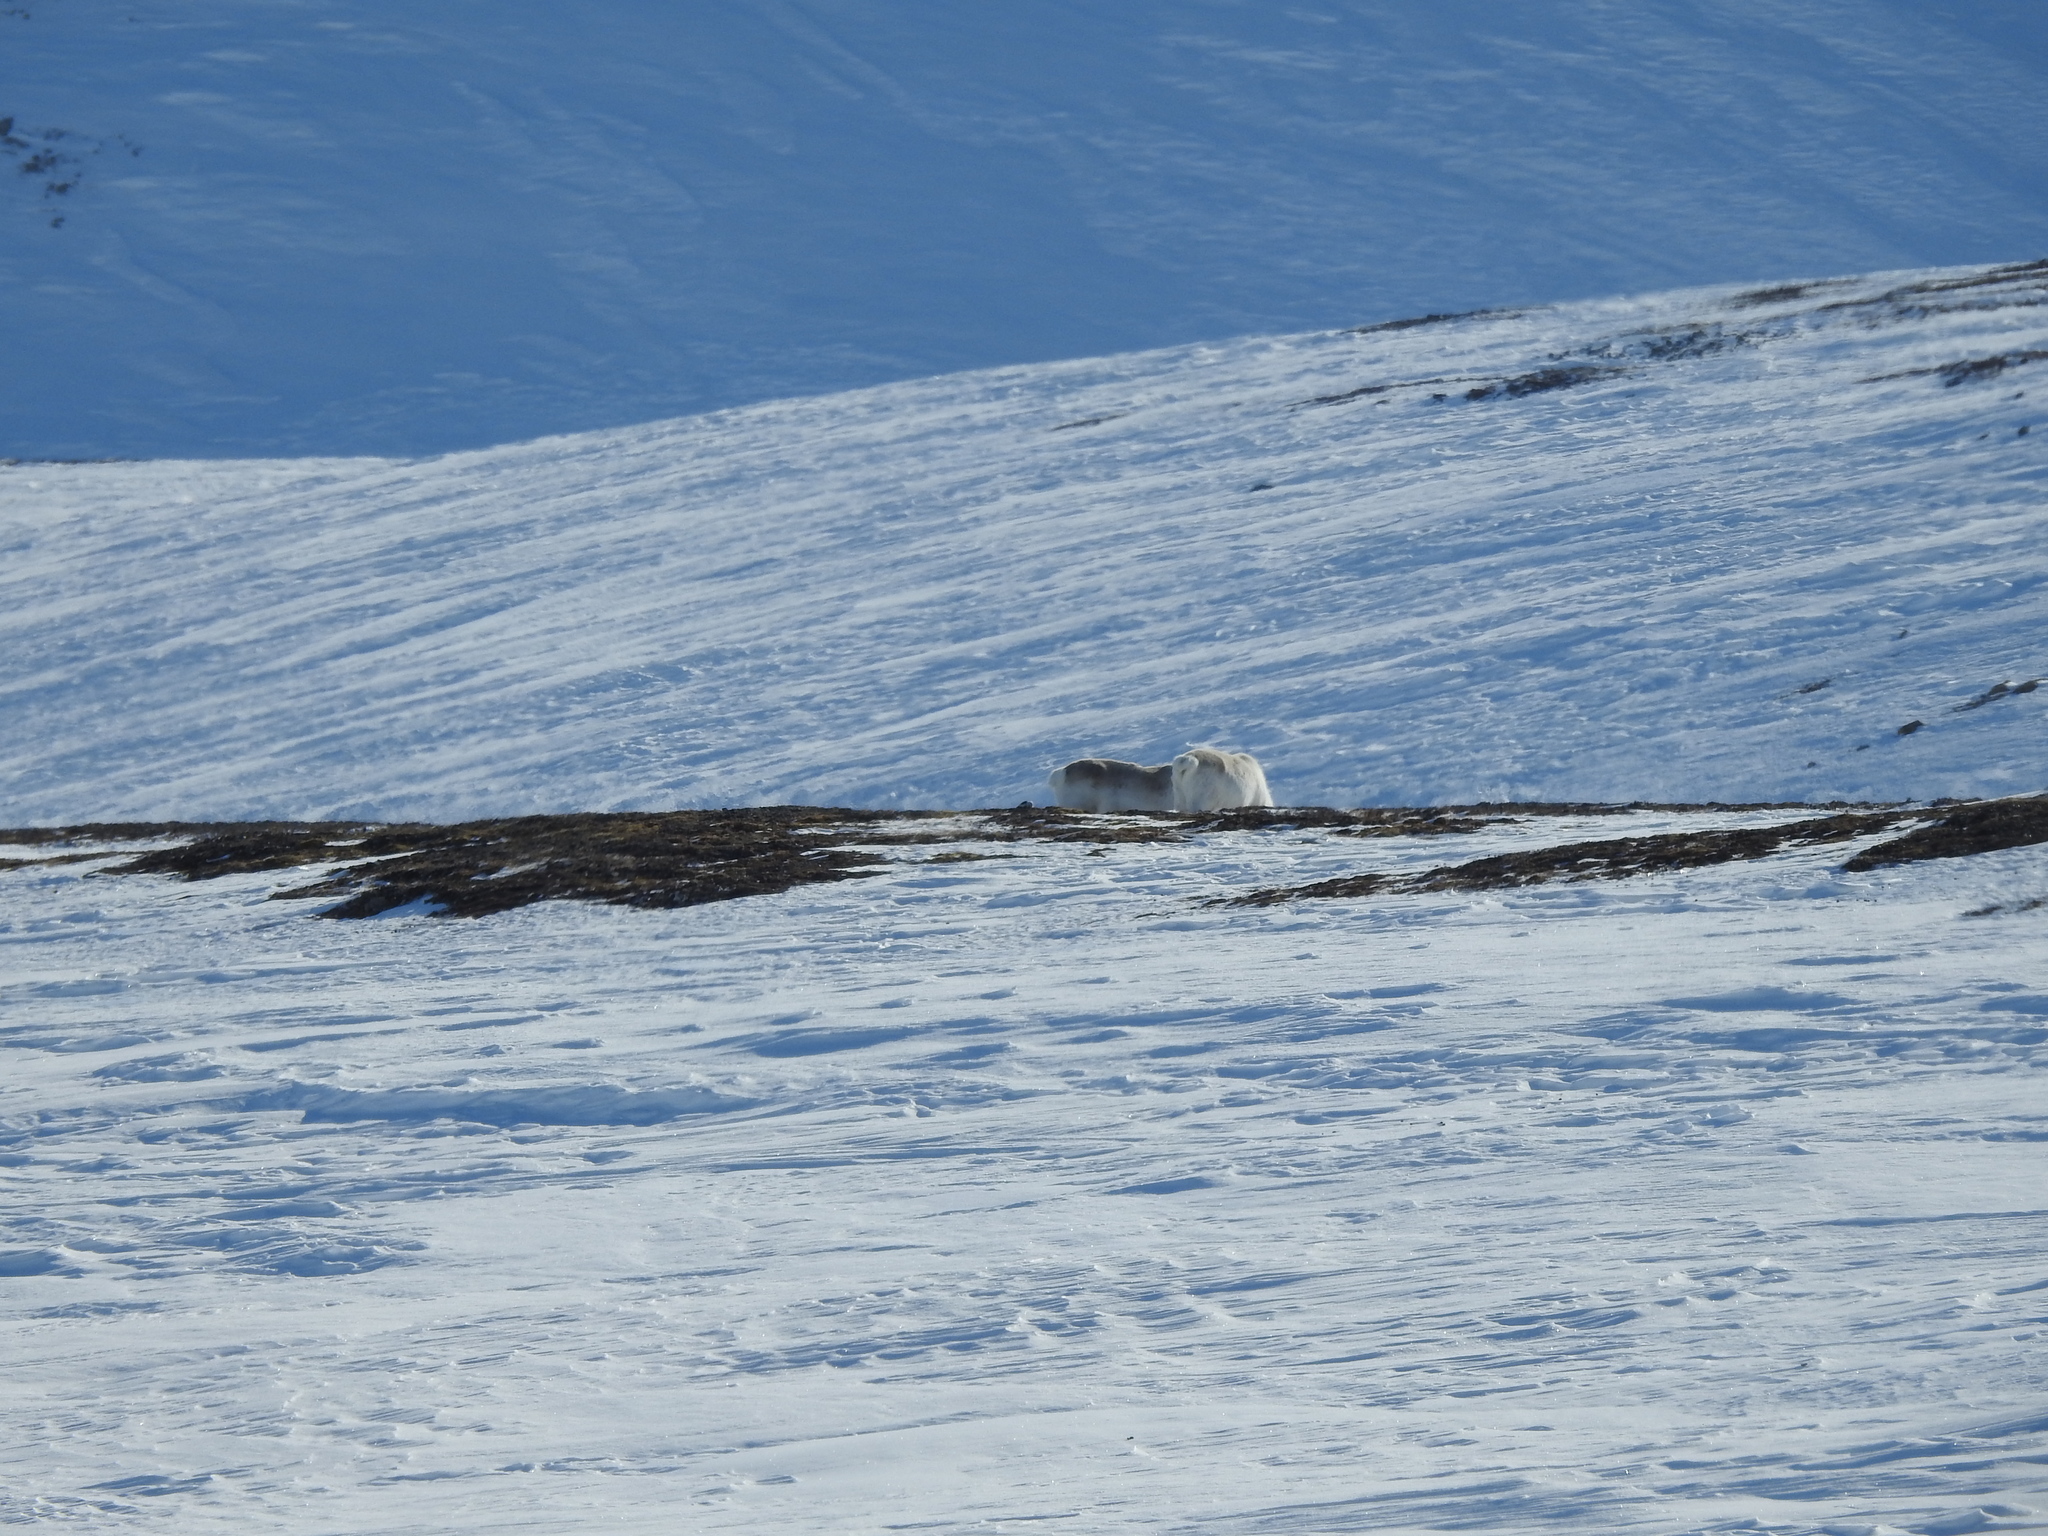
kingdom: Animalia
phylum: Chordata
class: Mammalia
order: Artiodactyla
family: Cervidae
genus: Rangifer
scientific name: Rangifer tarandus
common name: Reindeer
